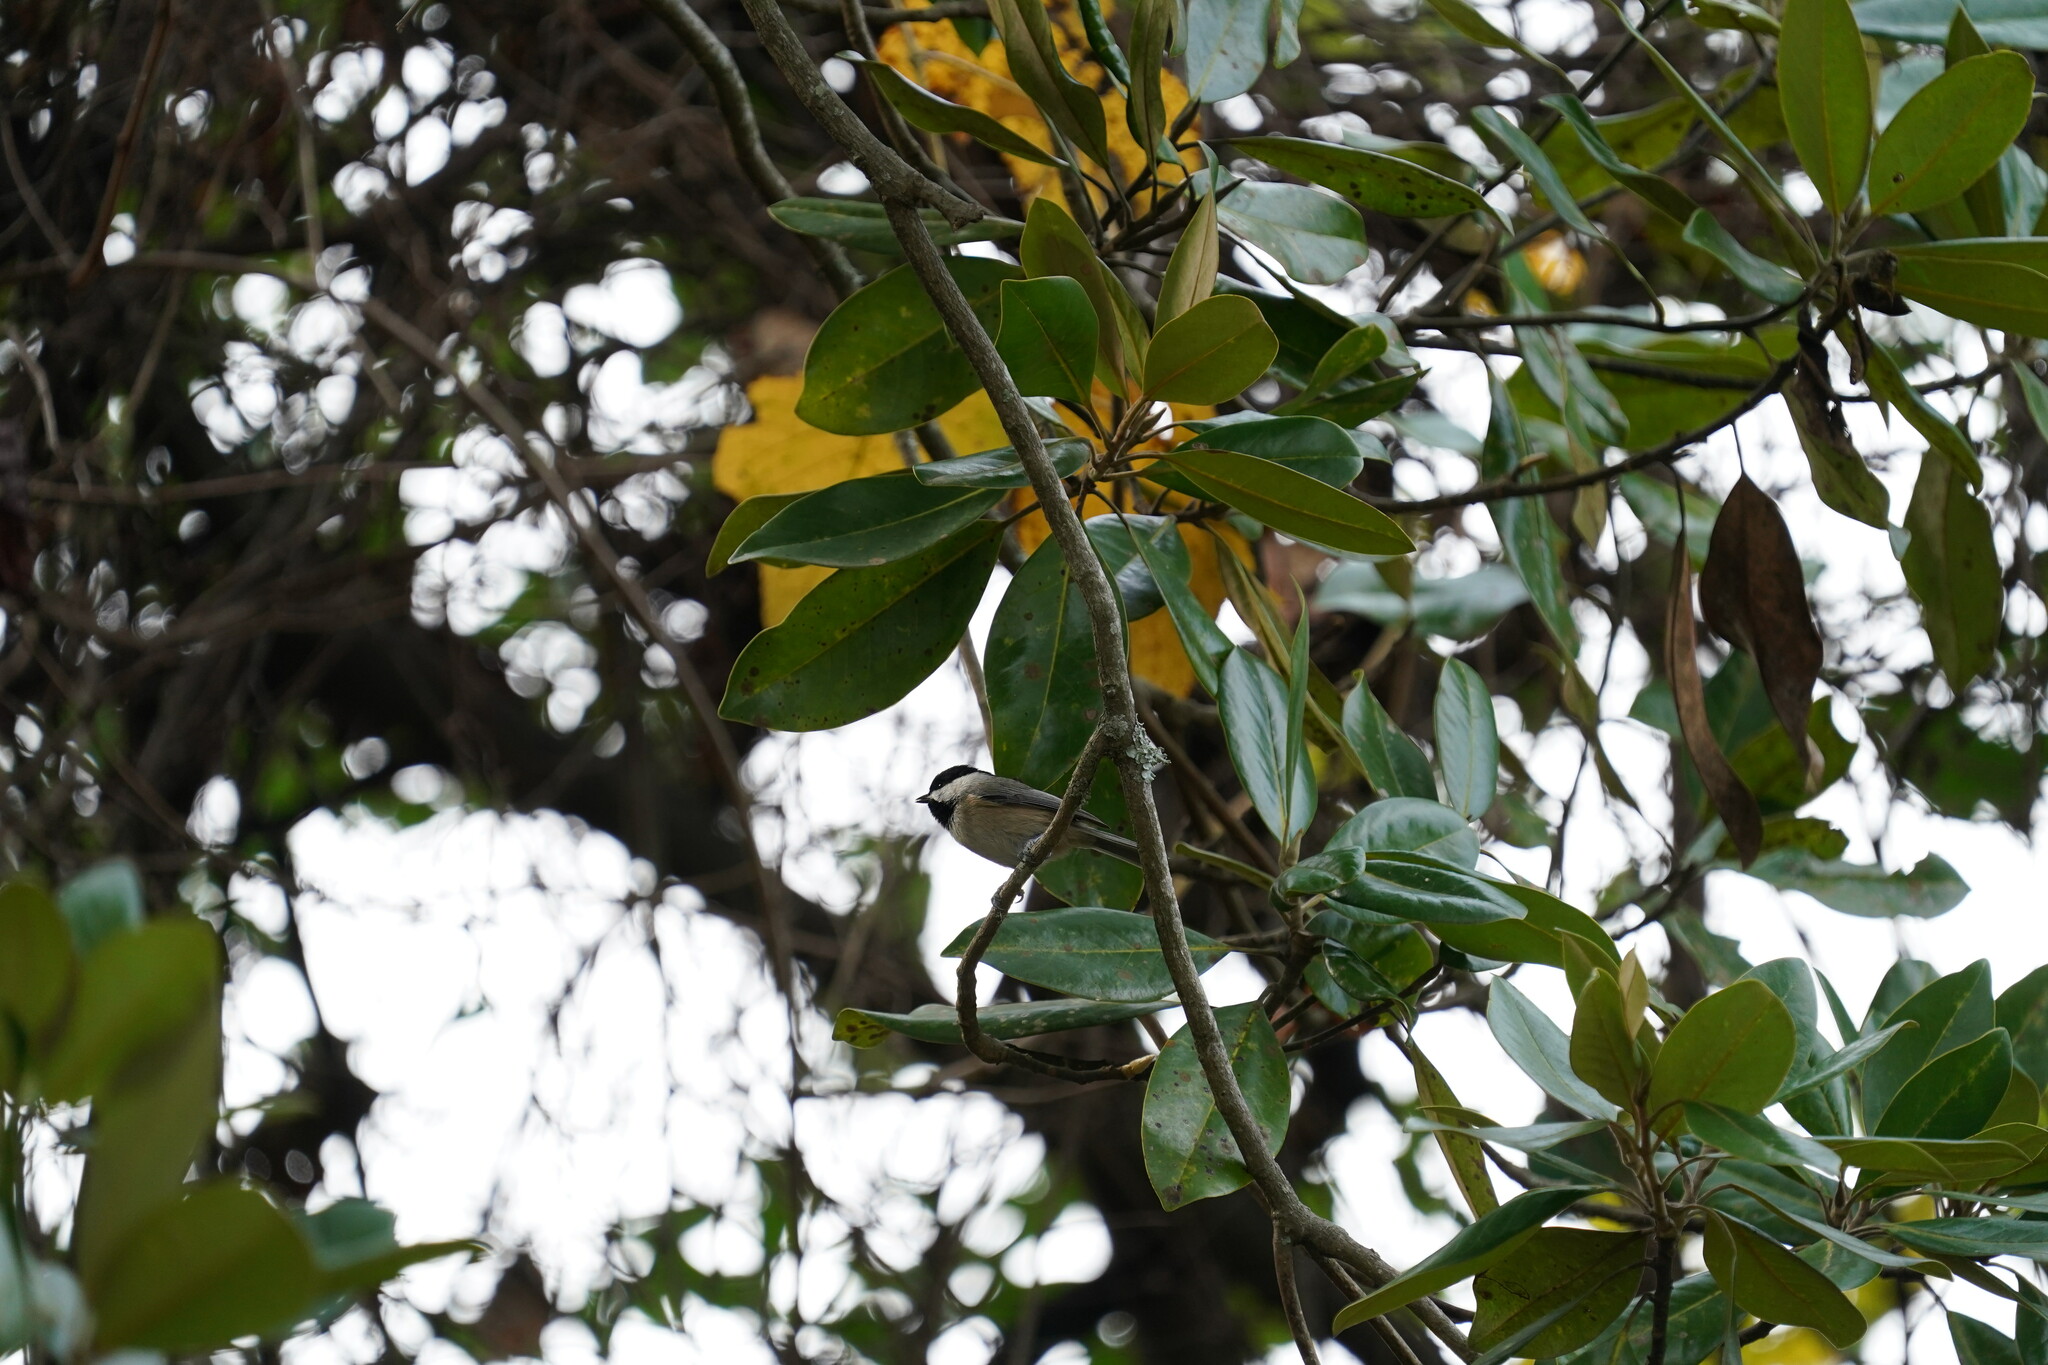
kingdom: Animalia
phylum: Chordata
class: Aves
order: Passeriformes
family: Paridae
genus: Poecile
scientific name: Poecile carolinensis
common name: Carolina chickadee
